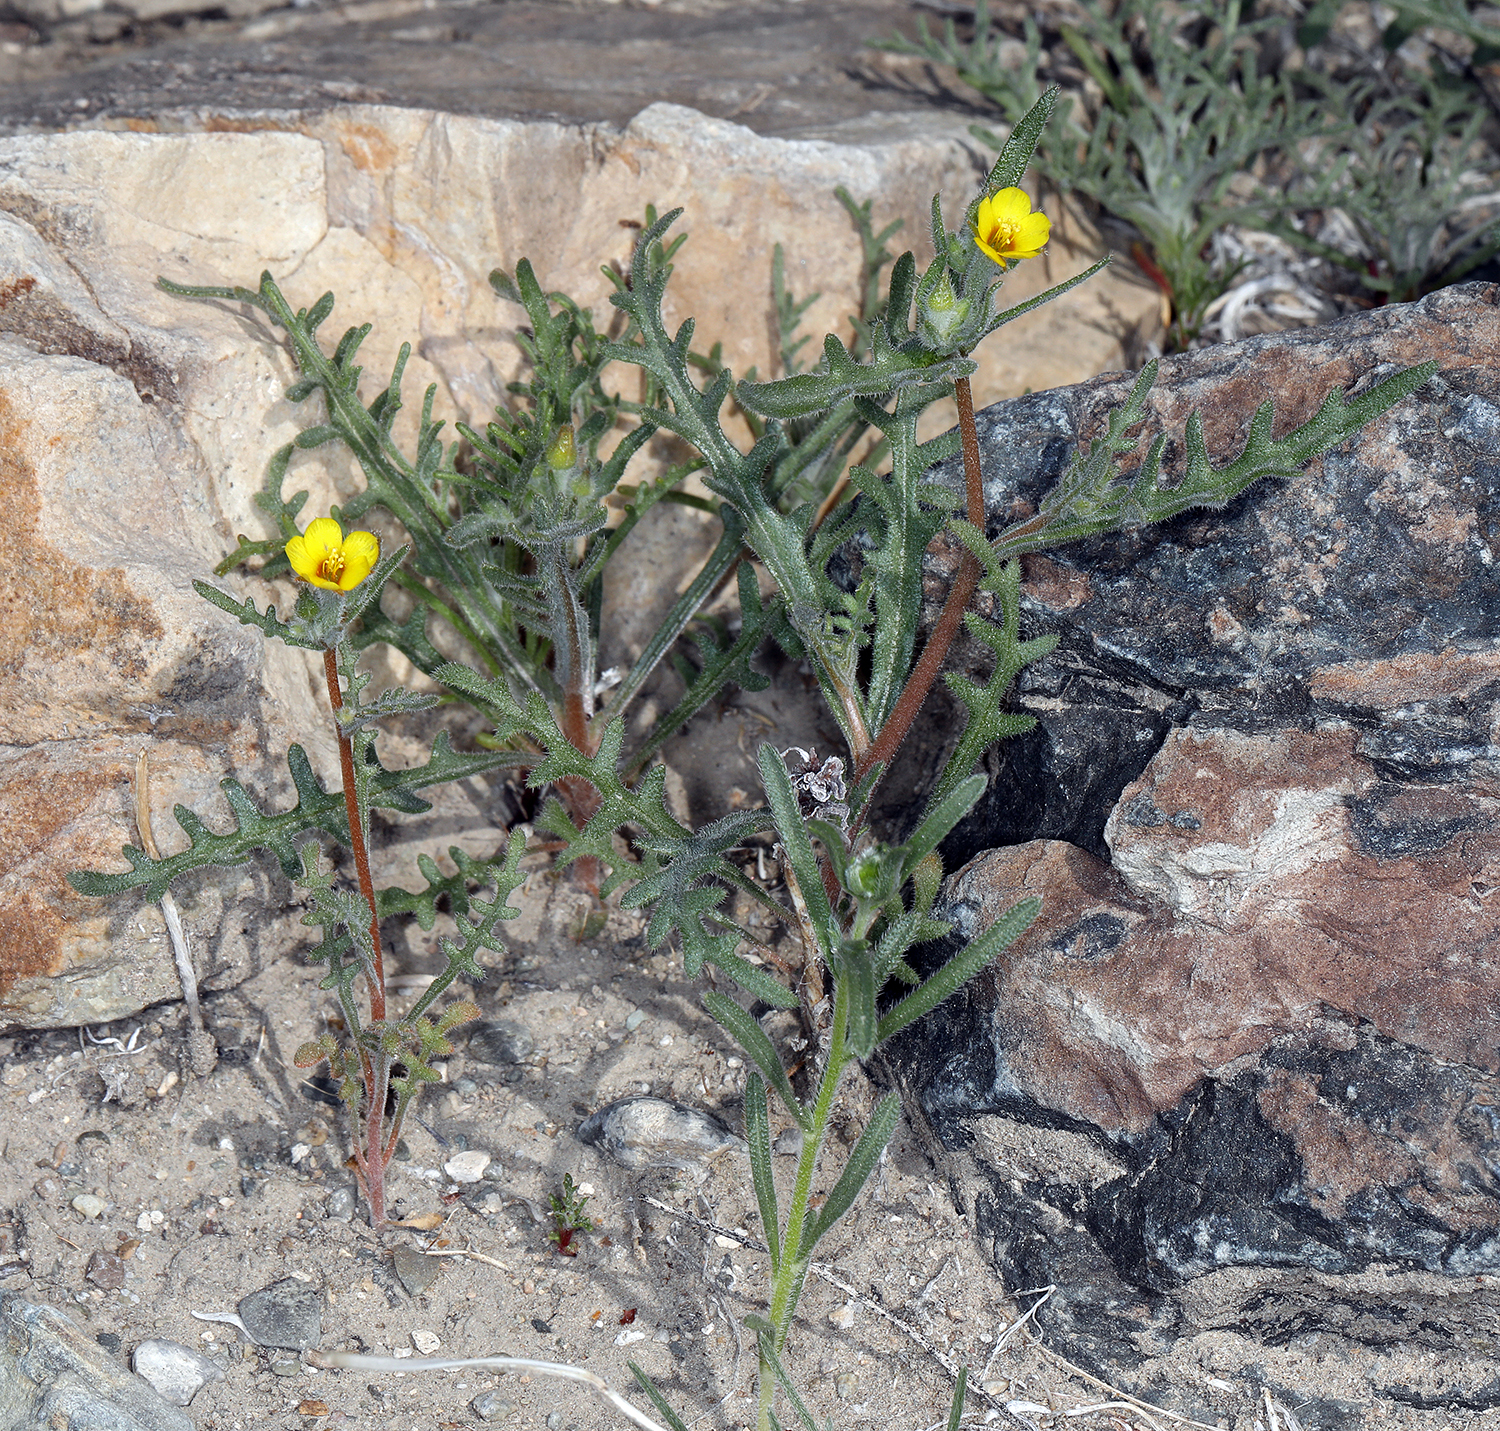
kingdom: Plantae
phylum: Tracheophyta
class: Magnoliopsida
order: Cornales
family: Loasaceae
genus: Mentzelia
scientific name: Mentzelia albicaulis
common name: White-stem blazingstar
